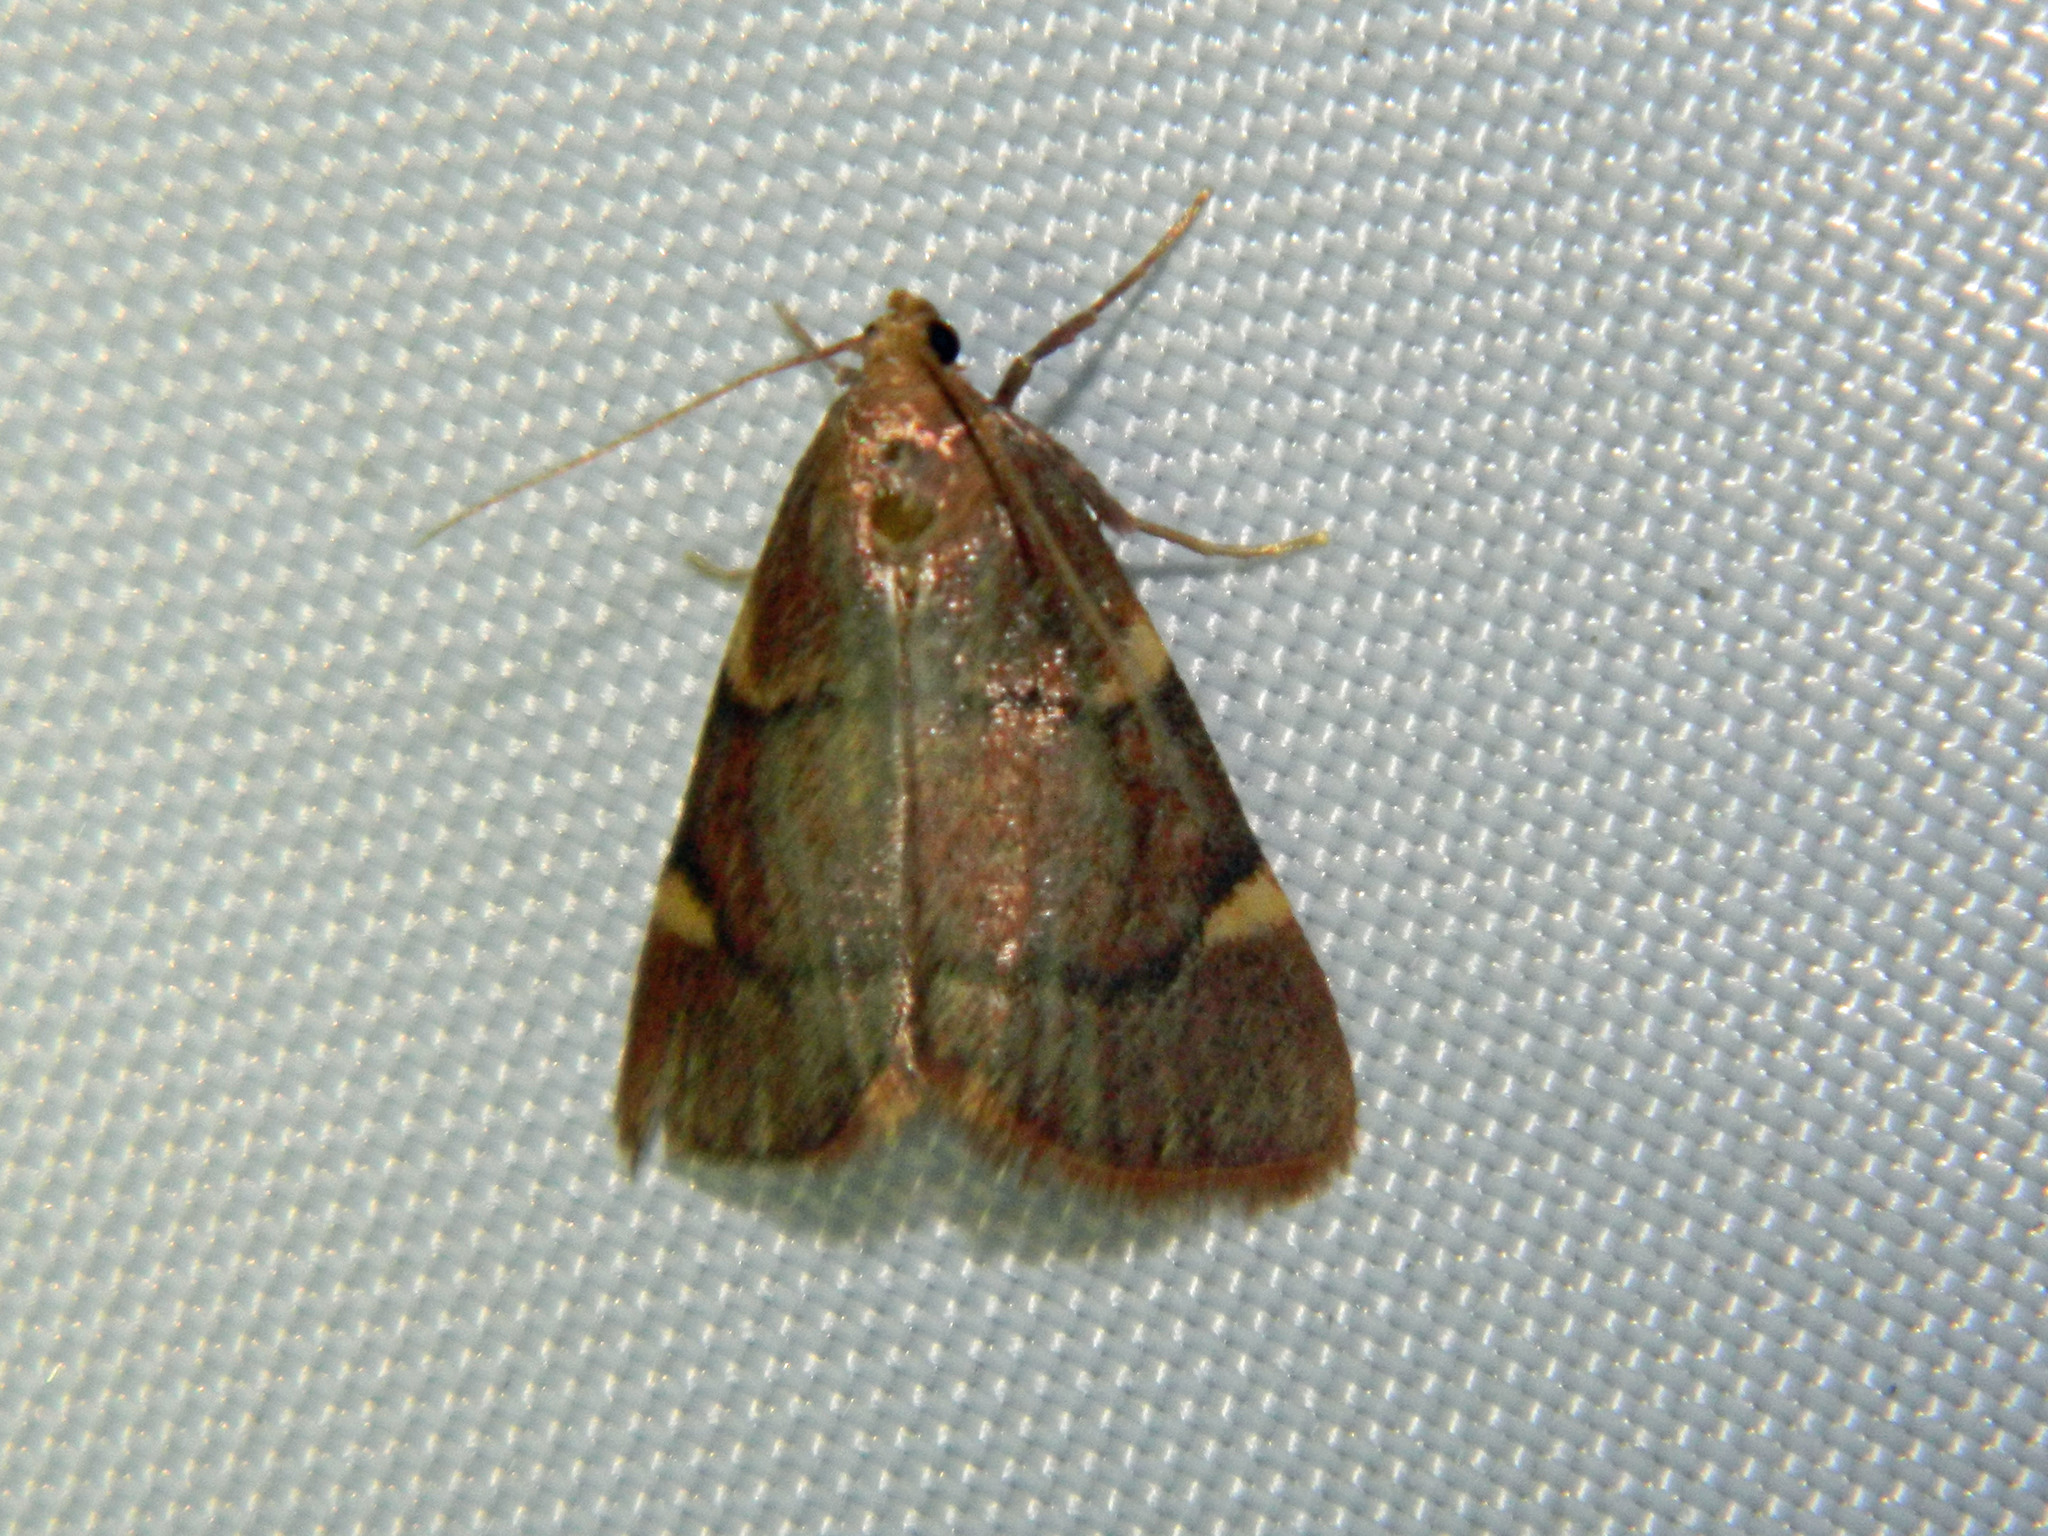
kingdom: Animalia
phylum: Arthropoda
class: Insecta
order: Lepidoptera
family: Pyralidae
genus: Hypsopygia
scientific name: Hypsopygia thymetusalis
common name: Spruce needleworm moth
